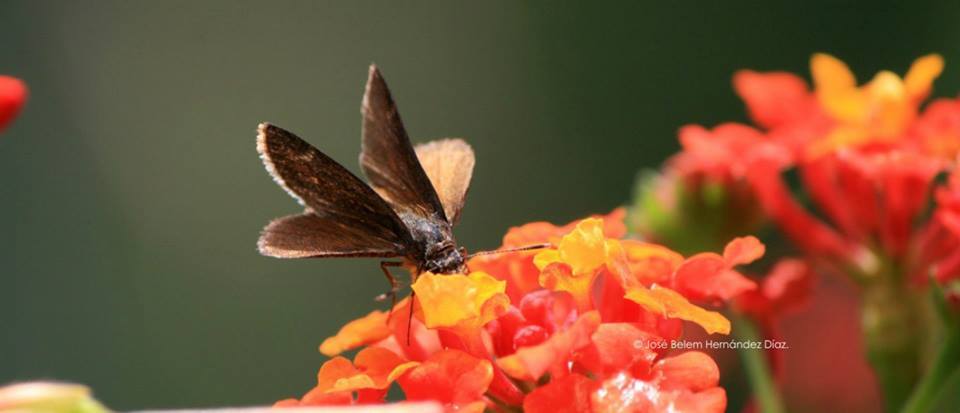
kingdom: Animalia
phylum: Arthropoda
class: Insecta
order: Lepidoptera
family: Hesperiidae
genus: Mastor
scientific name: Mastor fluonia
